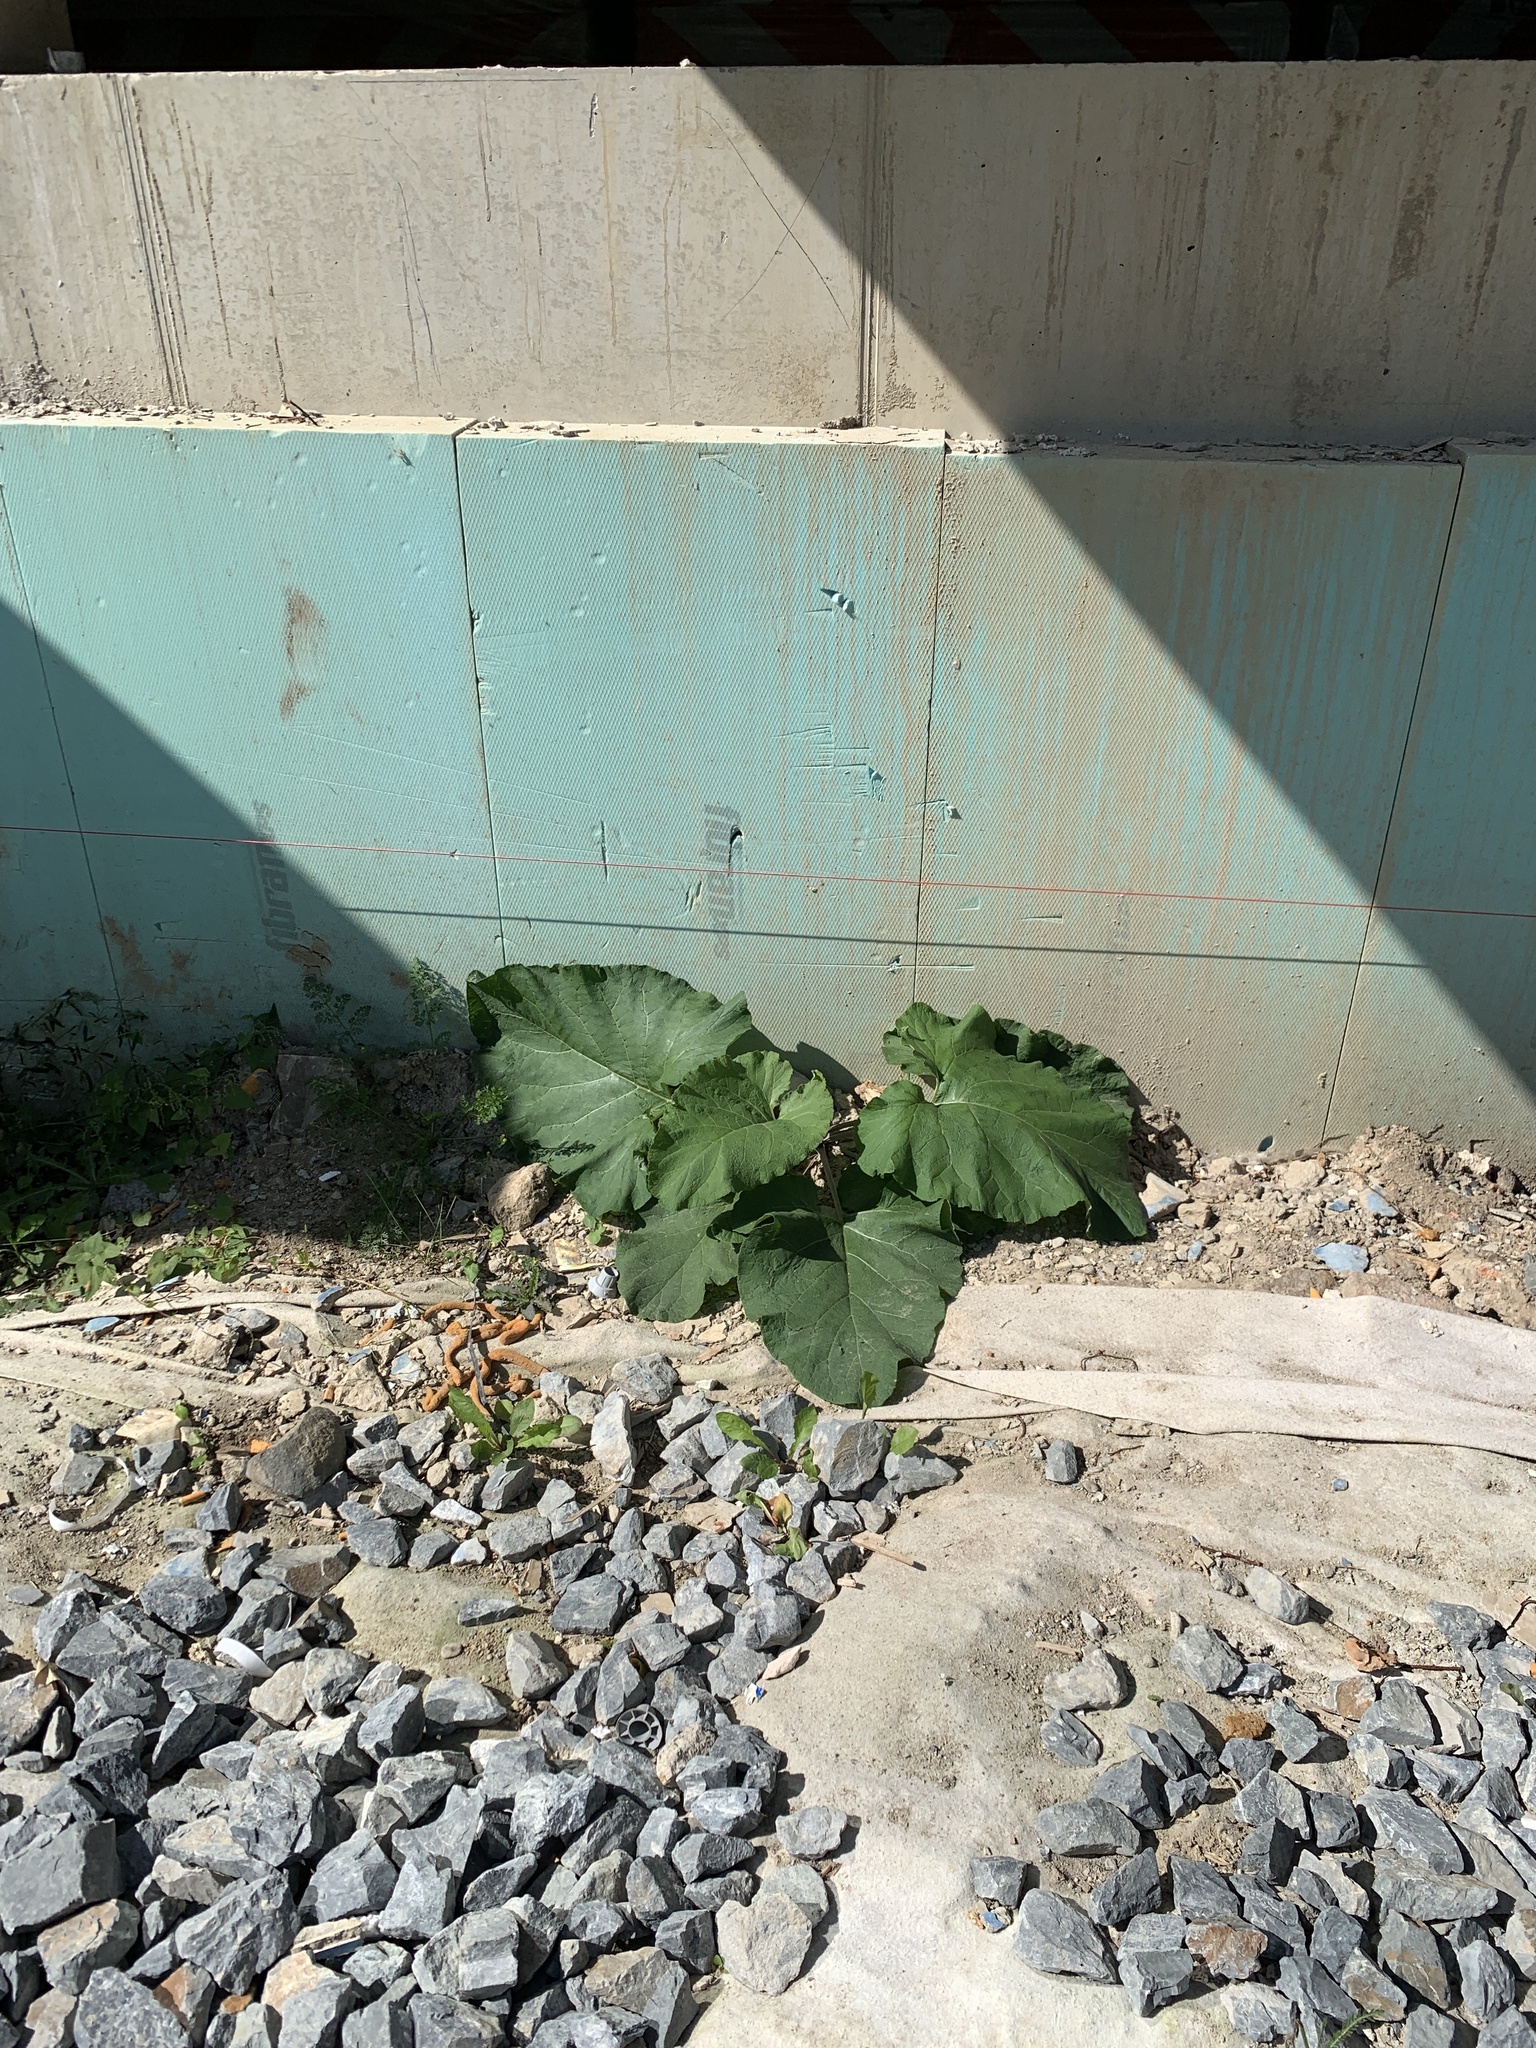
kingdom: Plantae
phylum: Tracheophyta
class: Magnoliopsida
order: Asterales
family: Asteraceae
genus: Arctium
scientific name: Arctium
